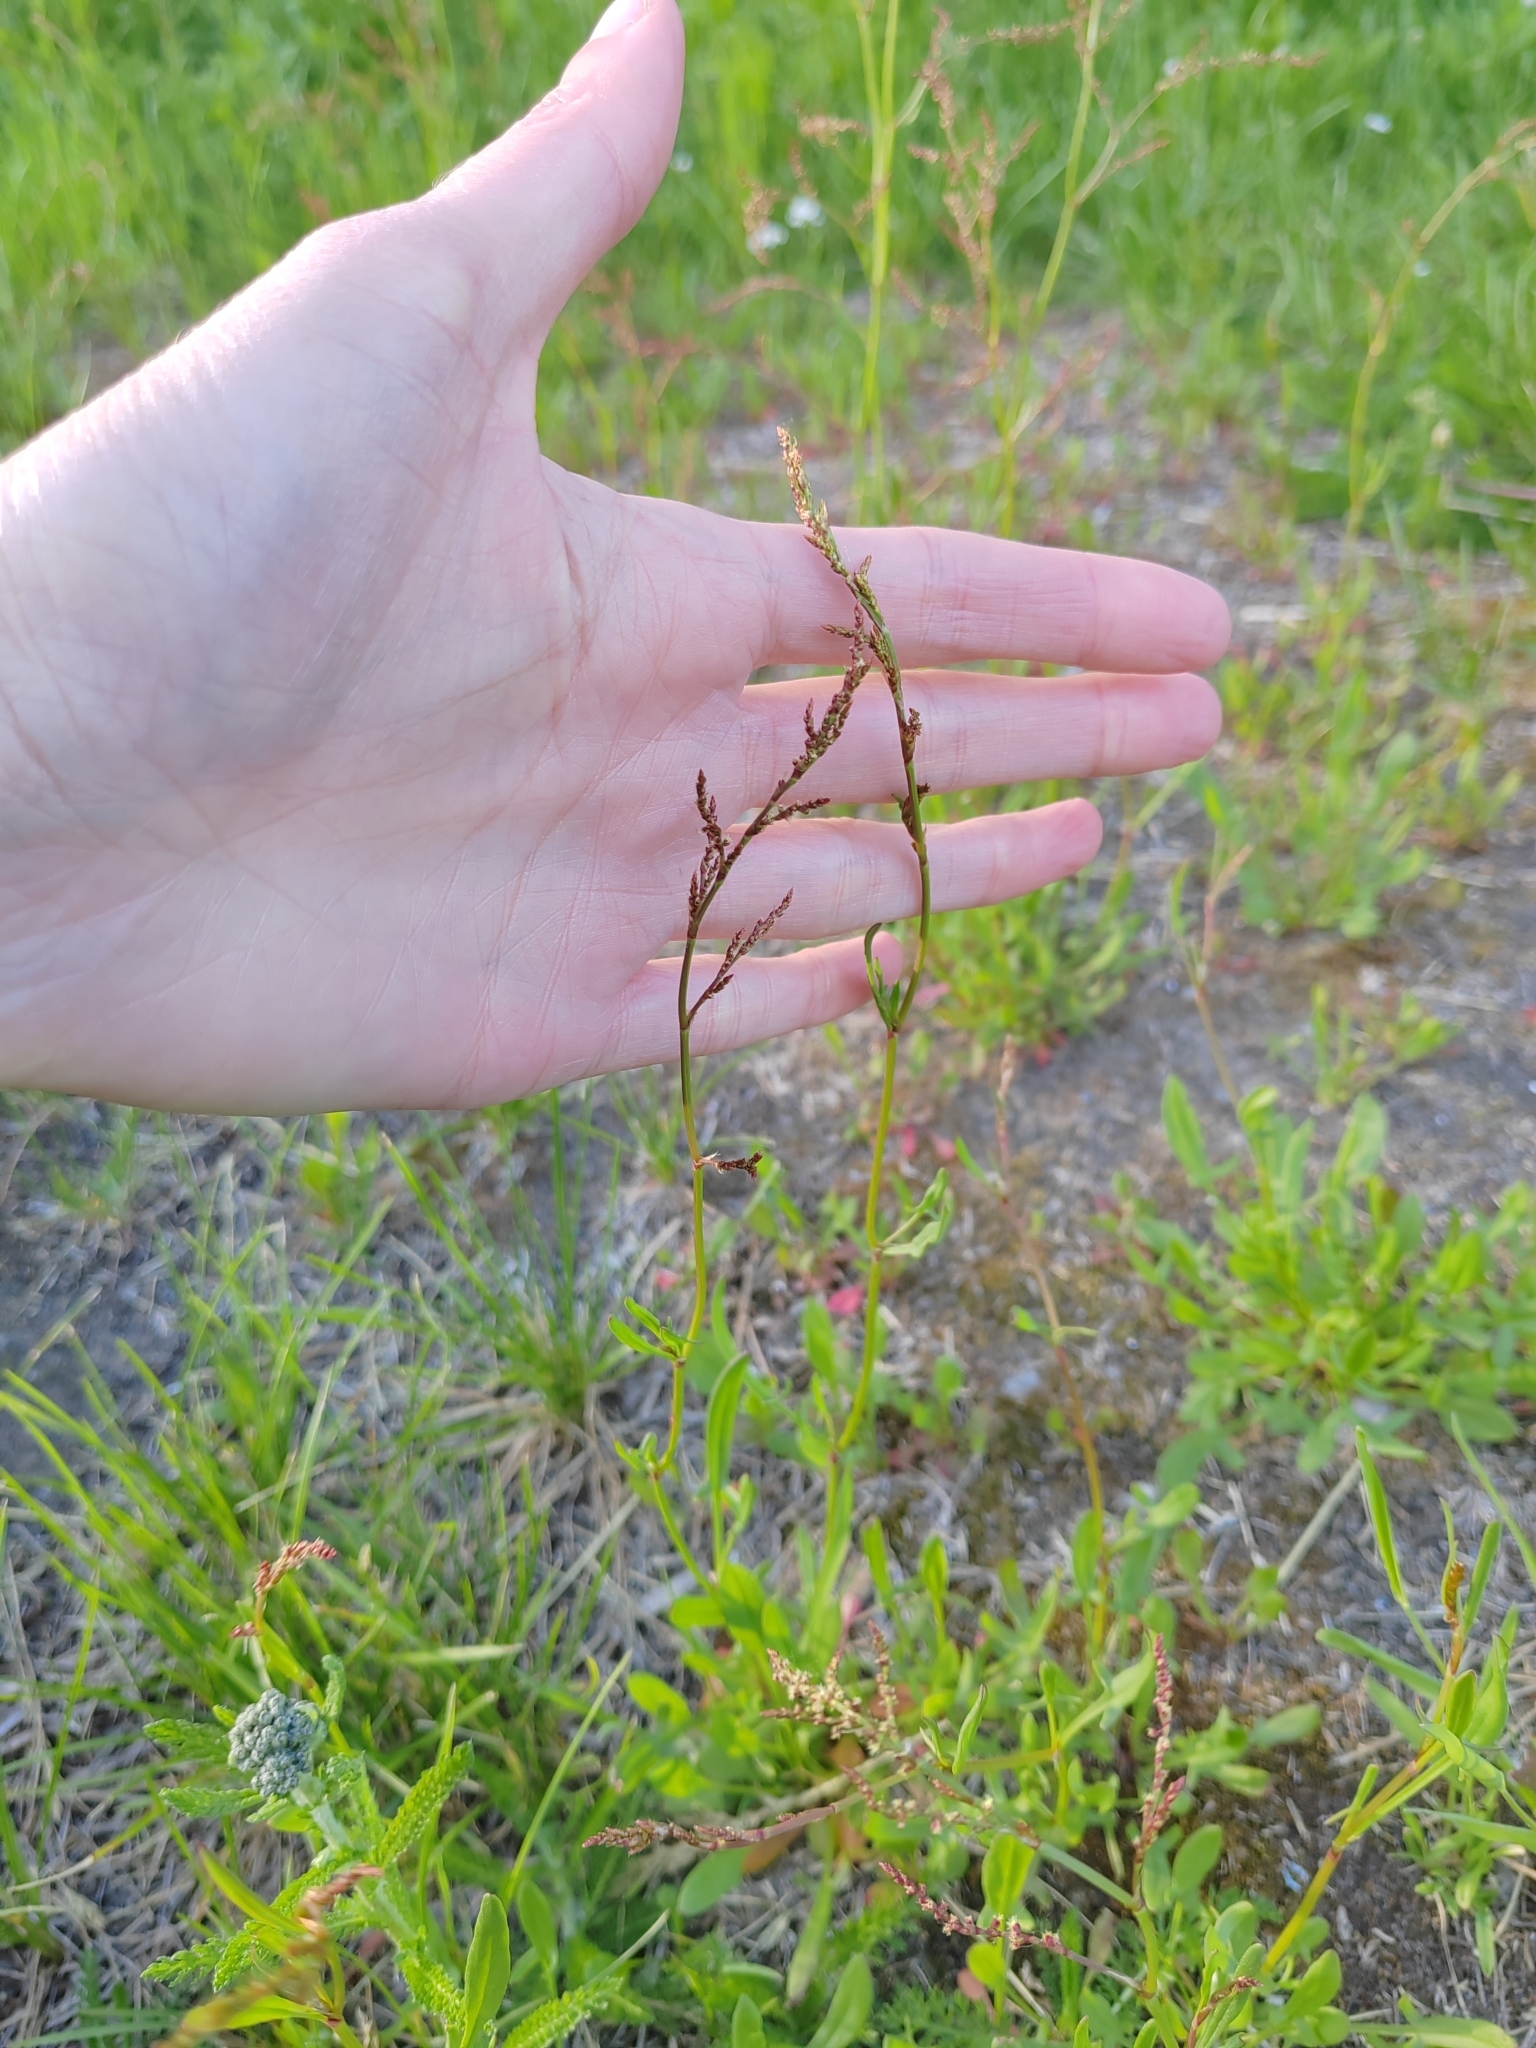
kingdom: Plantae
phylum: Tracheophyta
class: Magnoliopsida
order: Caryophyllales
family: Polygonaceae
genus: Rumex
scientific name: Rumex acetosella
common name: Common sheep sorrel
